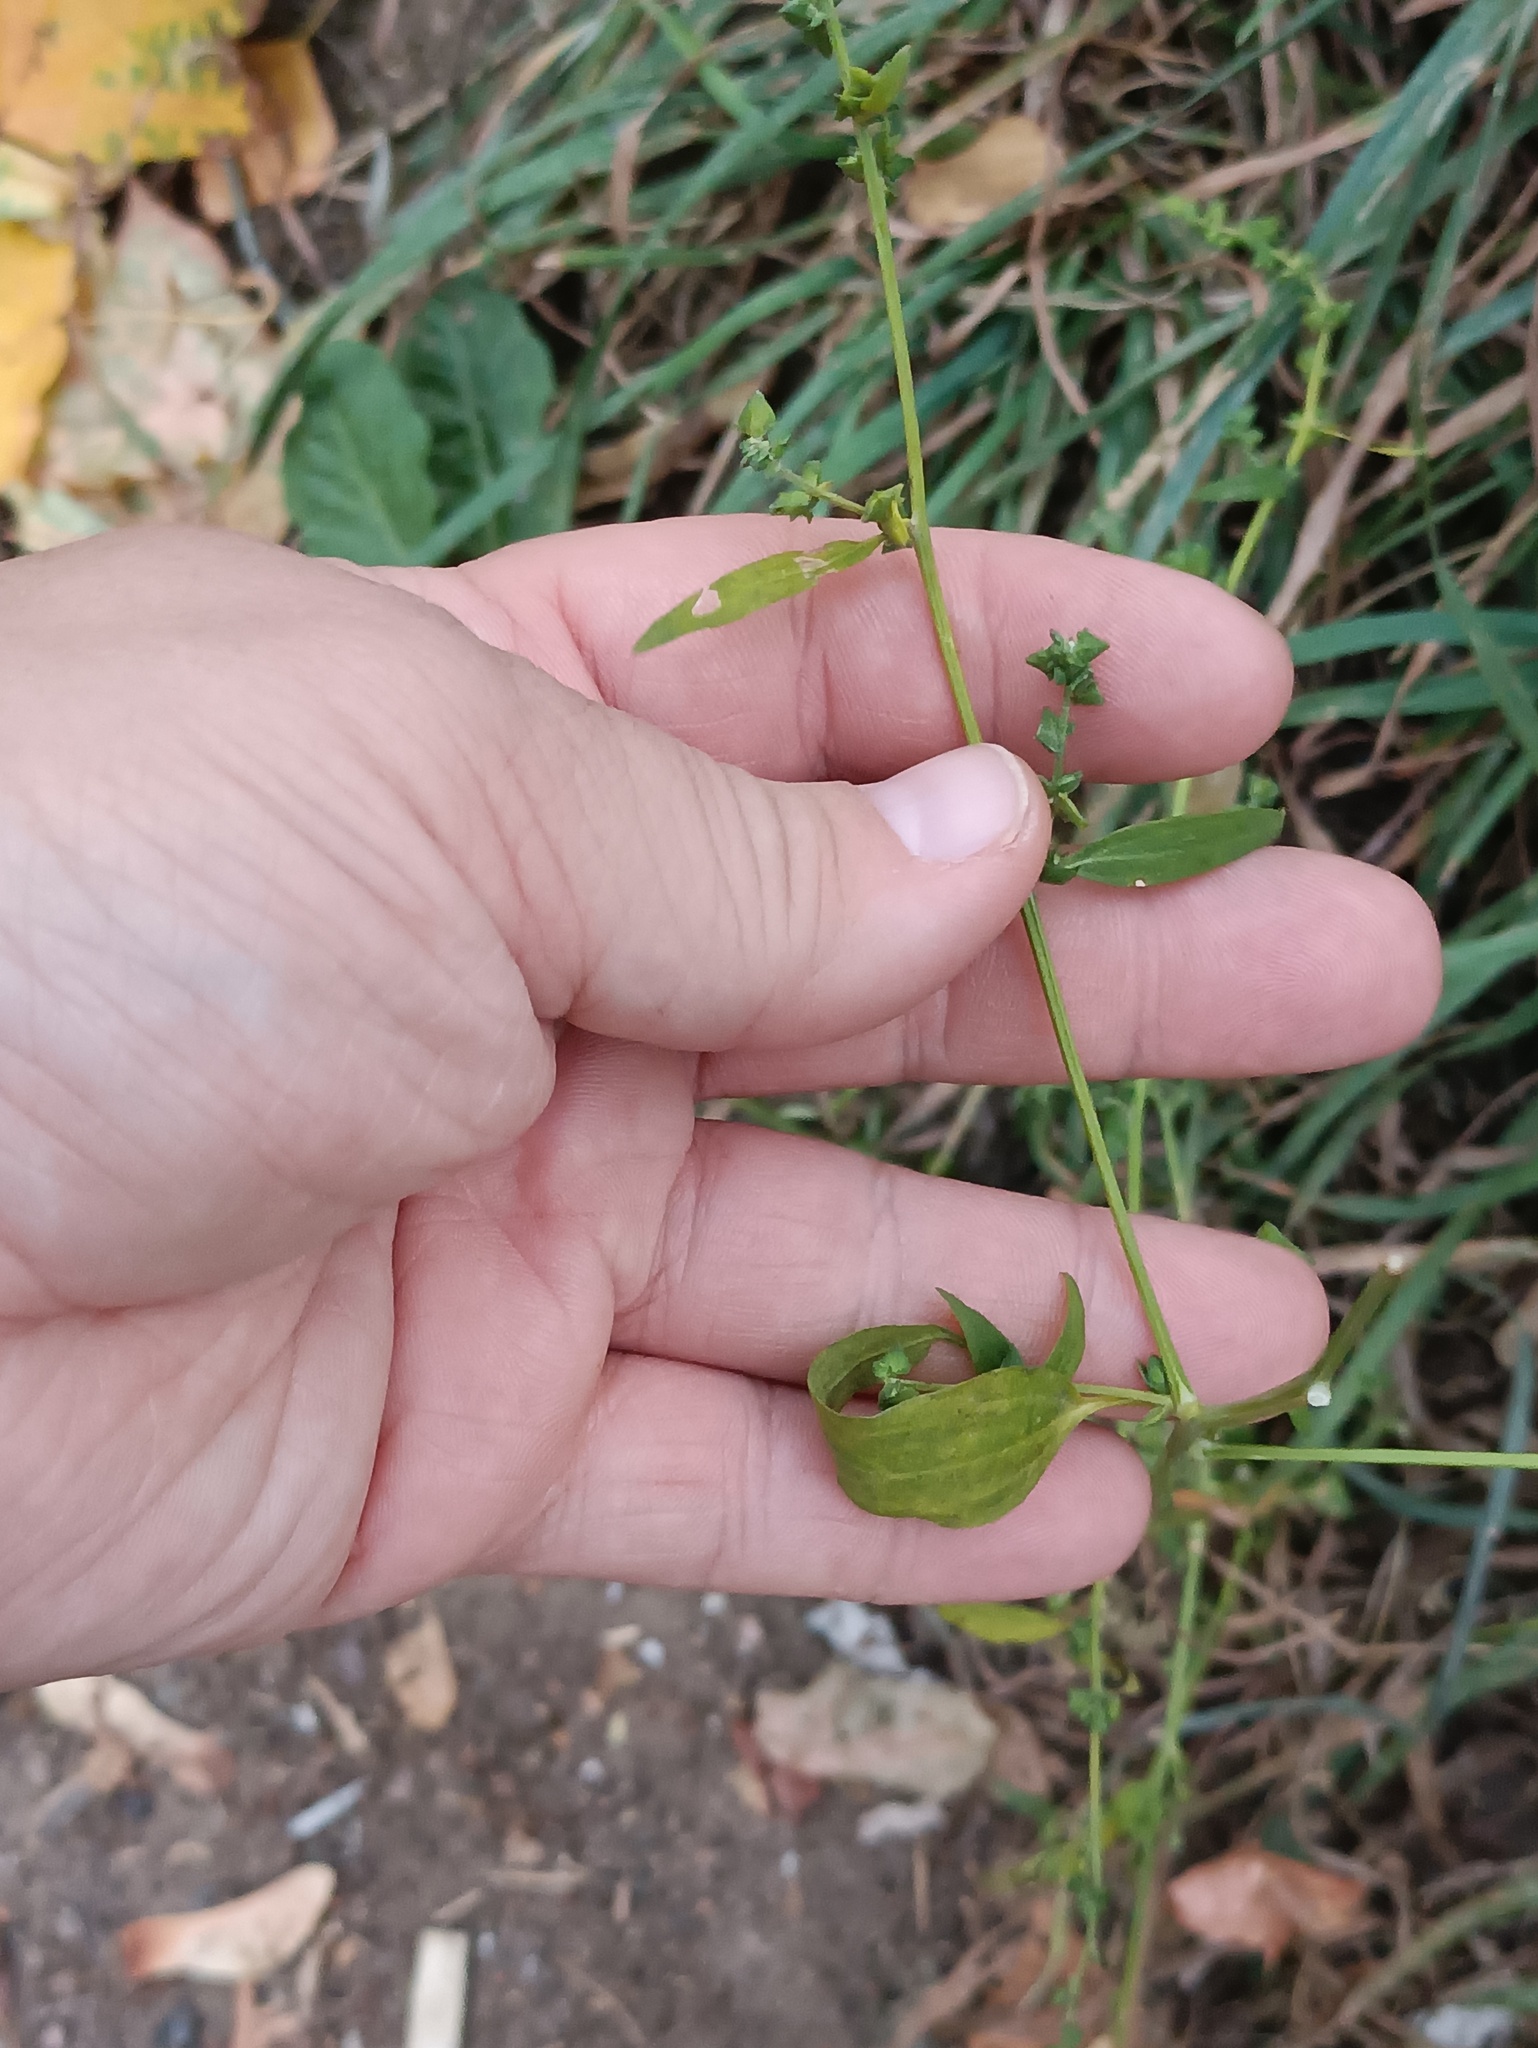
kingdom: Plantae
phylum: Tracheophyta
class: Magnoliopsida
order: Caryophyllales
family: Amaranthaceae
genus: Atriplex
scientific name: Atriplex patula
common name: Common orache
